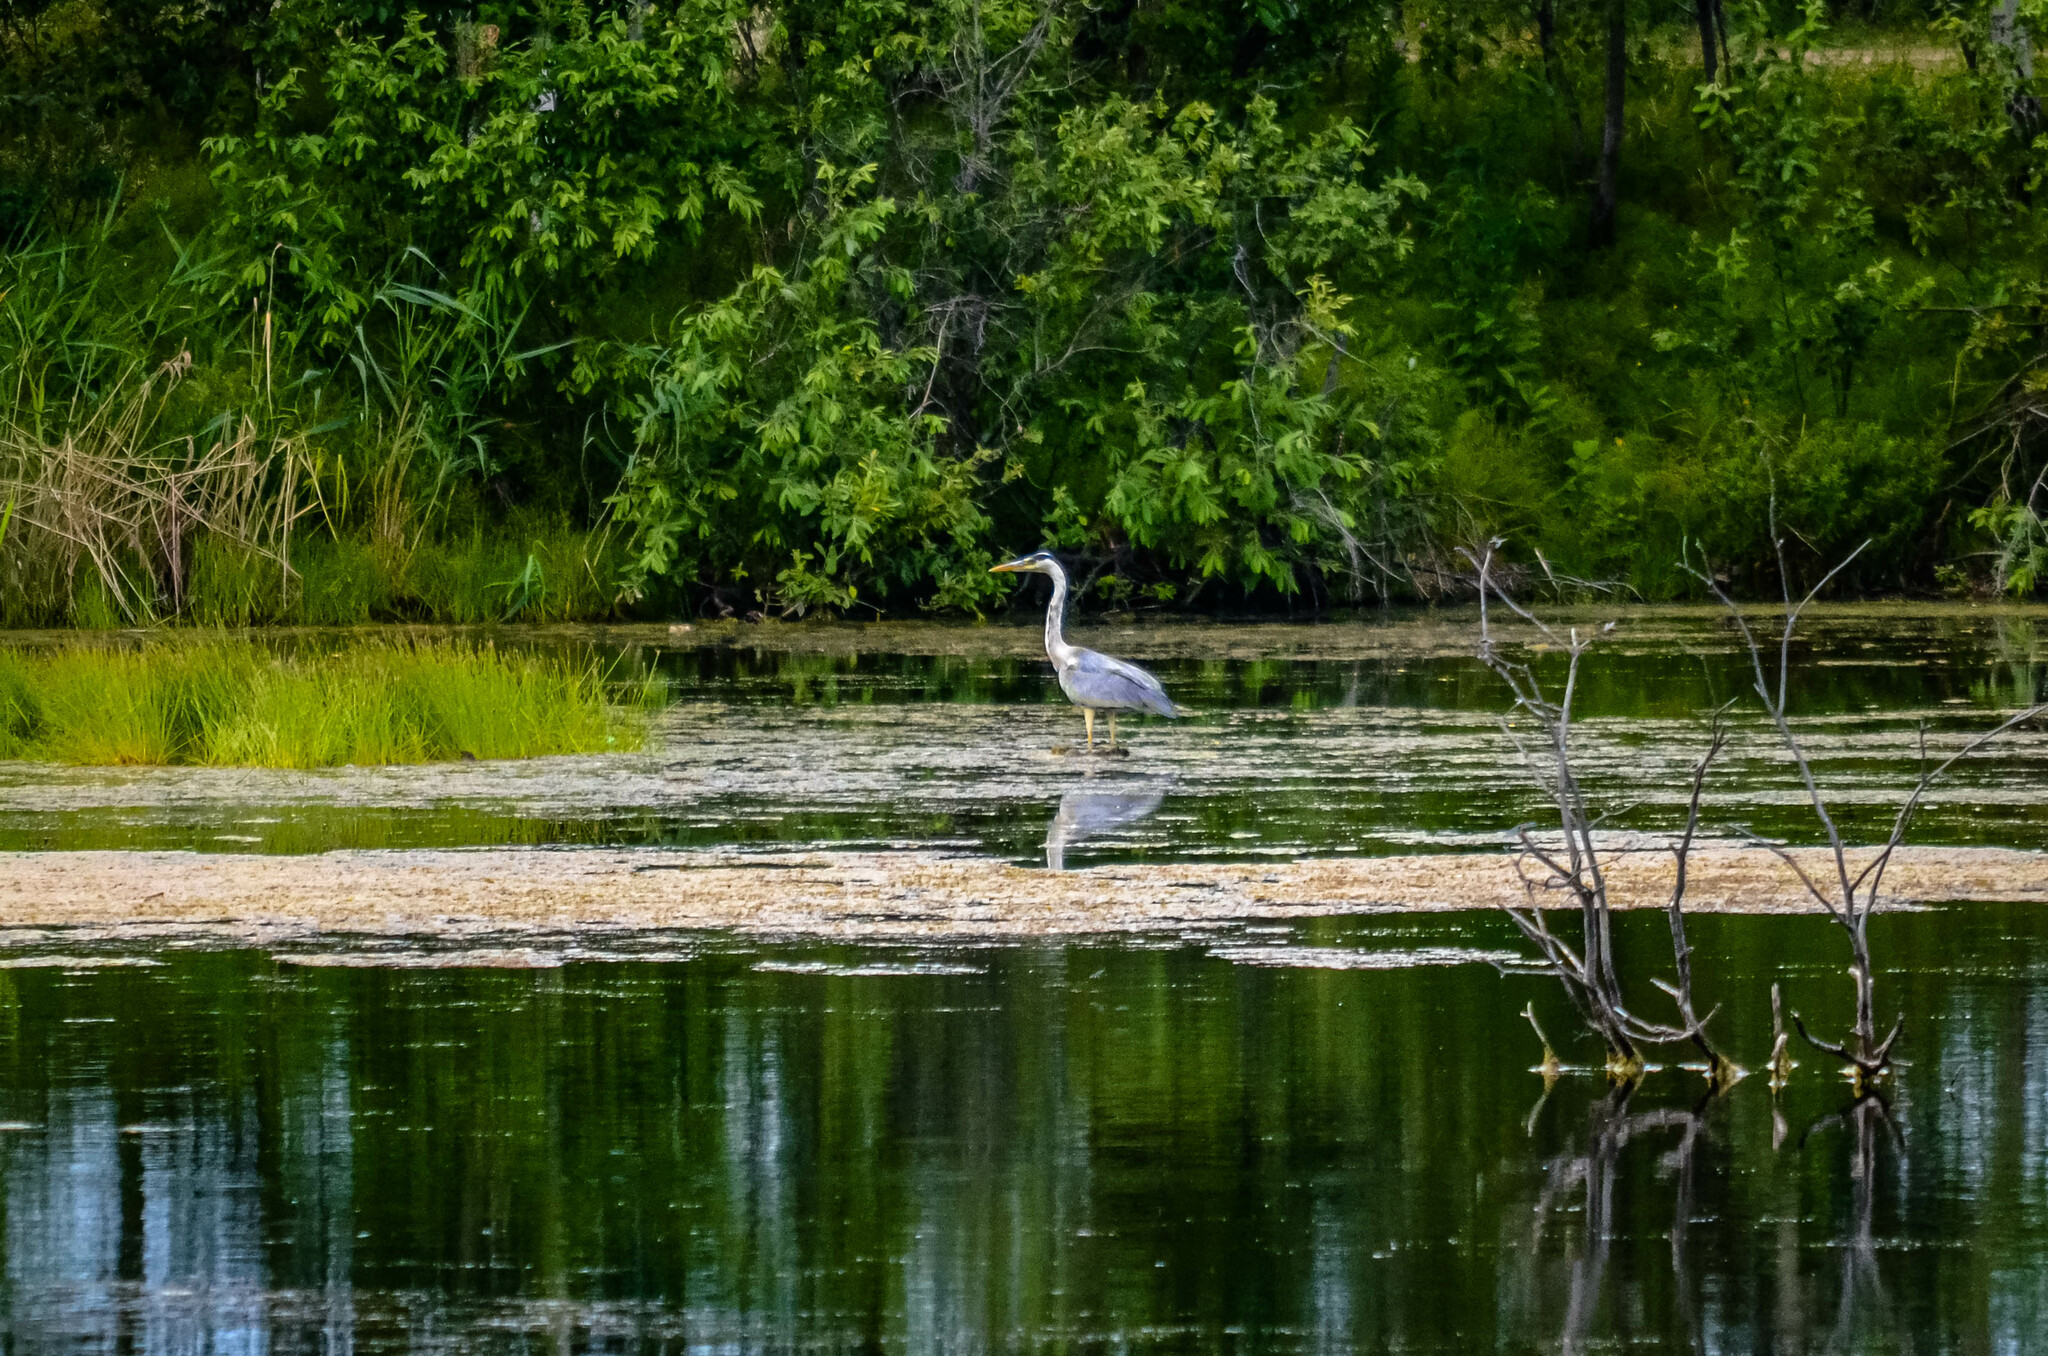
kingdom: Animalia
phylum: Chordata
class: Aves
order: Pelecaniformes
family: Ardeidae
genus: Ardea
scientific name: Ardea cinerea
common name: Grey heron
